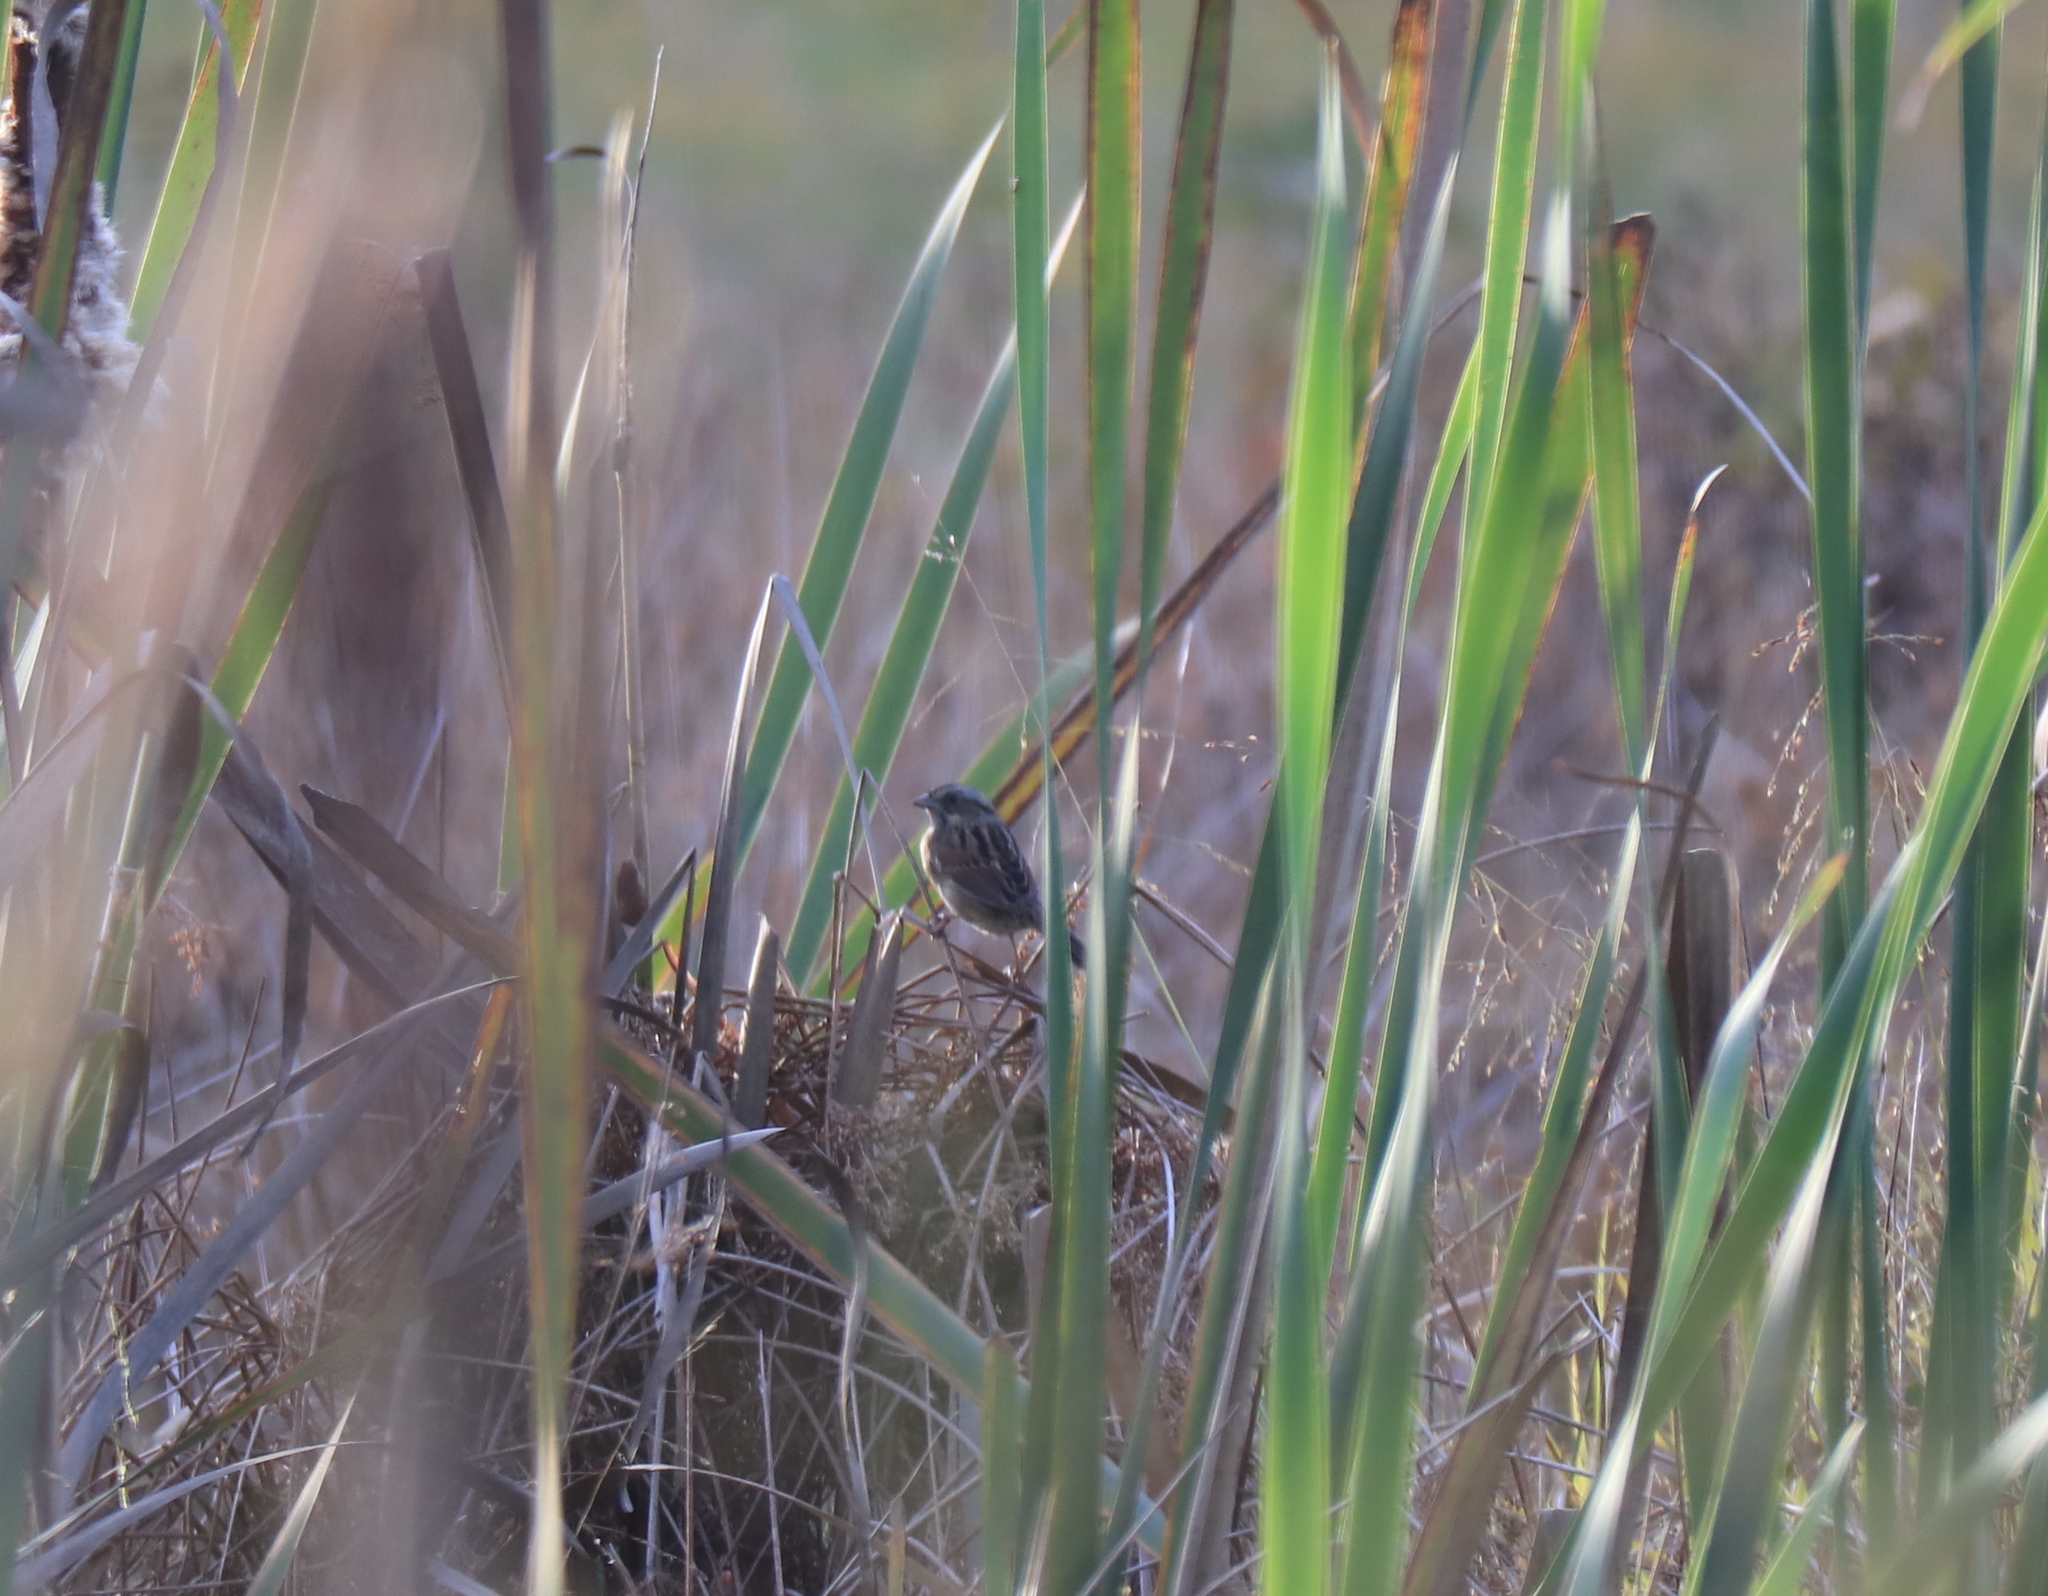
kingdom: Animalia
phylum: Chordata
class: Aves
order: Passeriformes
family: Passerellidae
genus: Melospiza
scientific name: Melospiza georgiana
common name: Swamp sparrow
